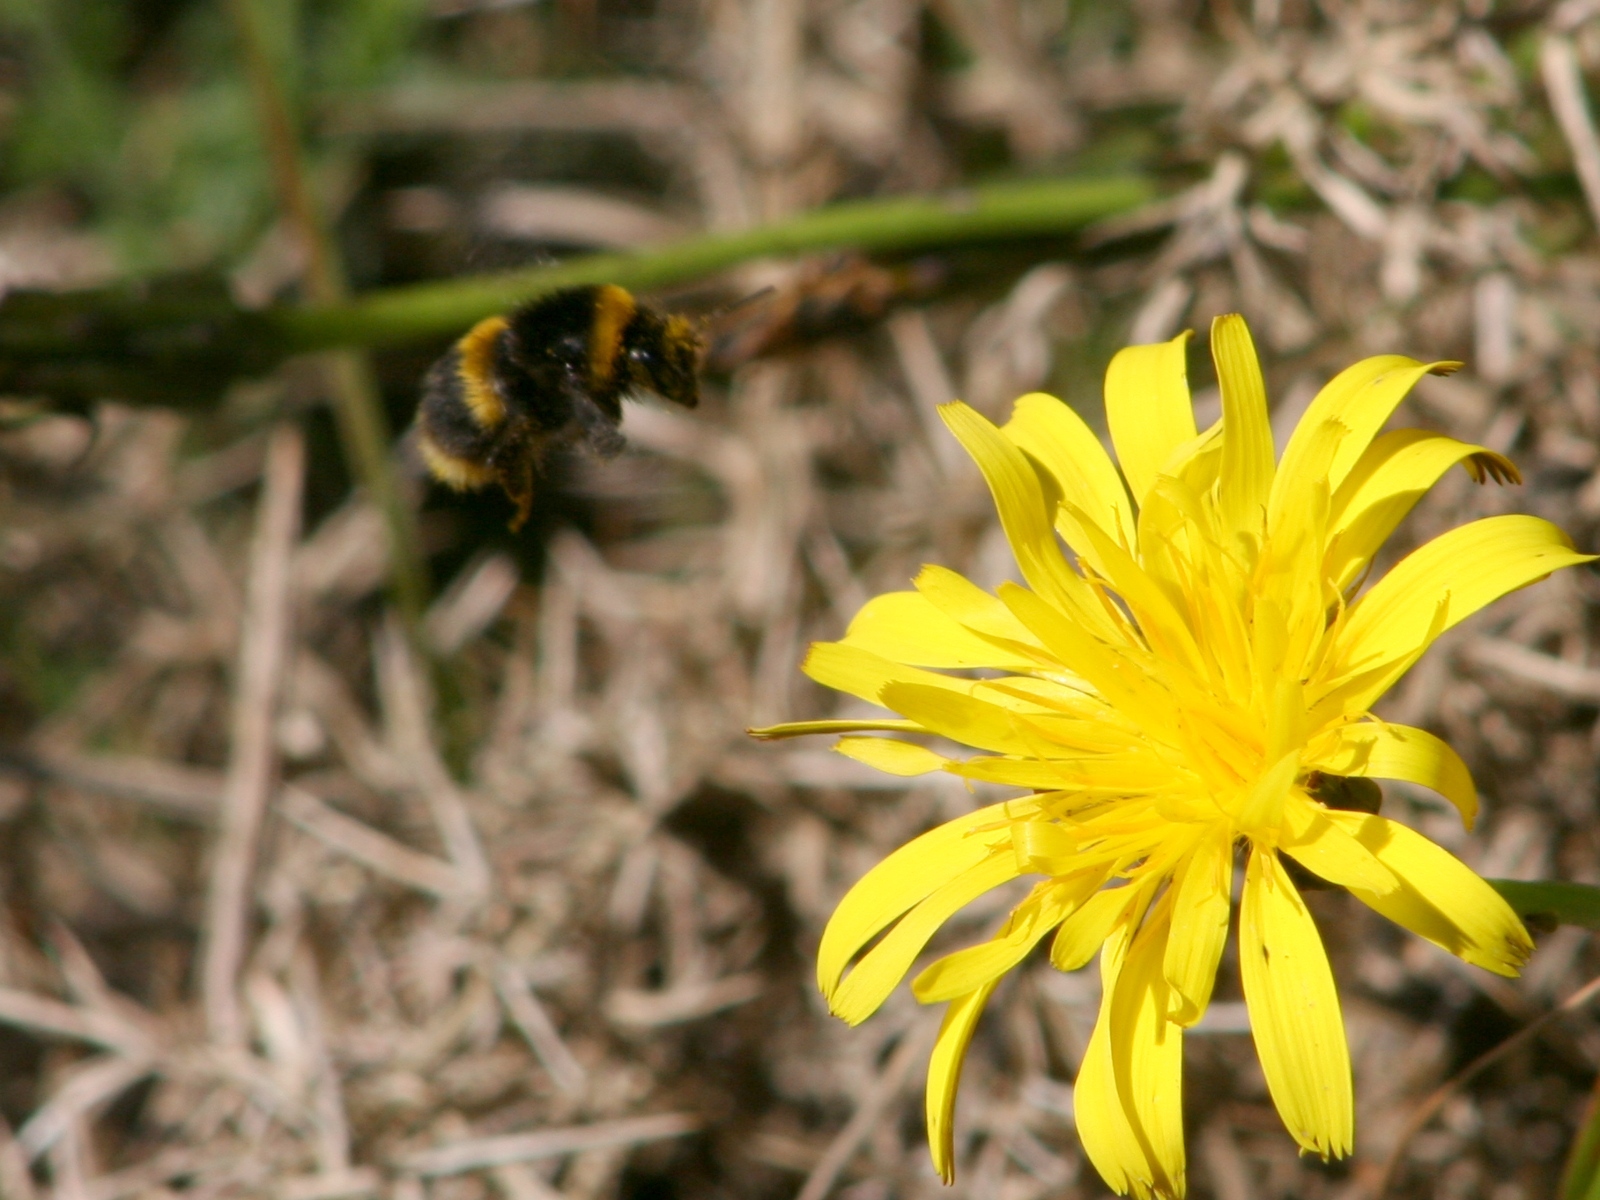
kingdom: Animalia
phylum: Arthropoda
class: Insecta
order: Hymenoptera
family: Apidae
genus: Bombus
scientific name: Bombus terrestris
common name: Buff-tailed bumblebee
